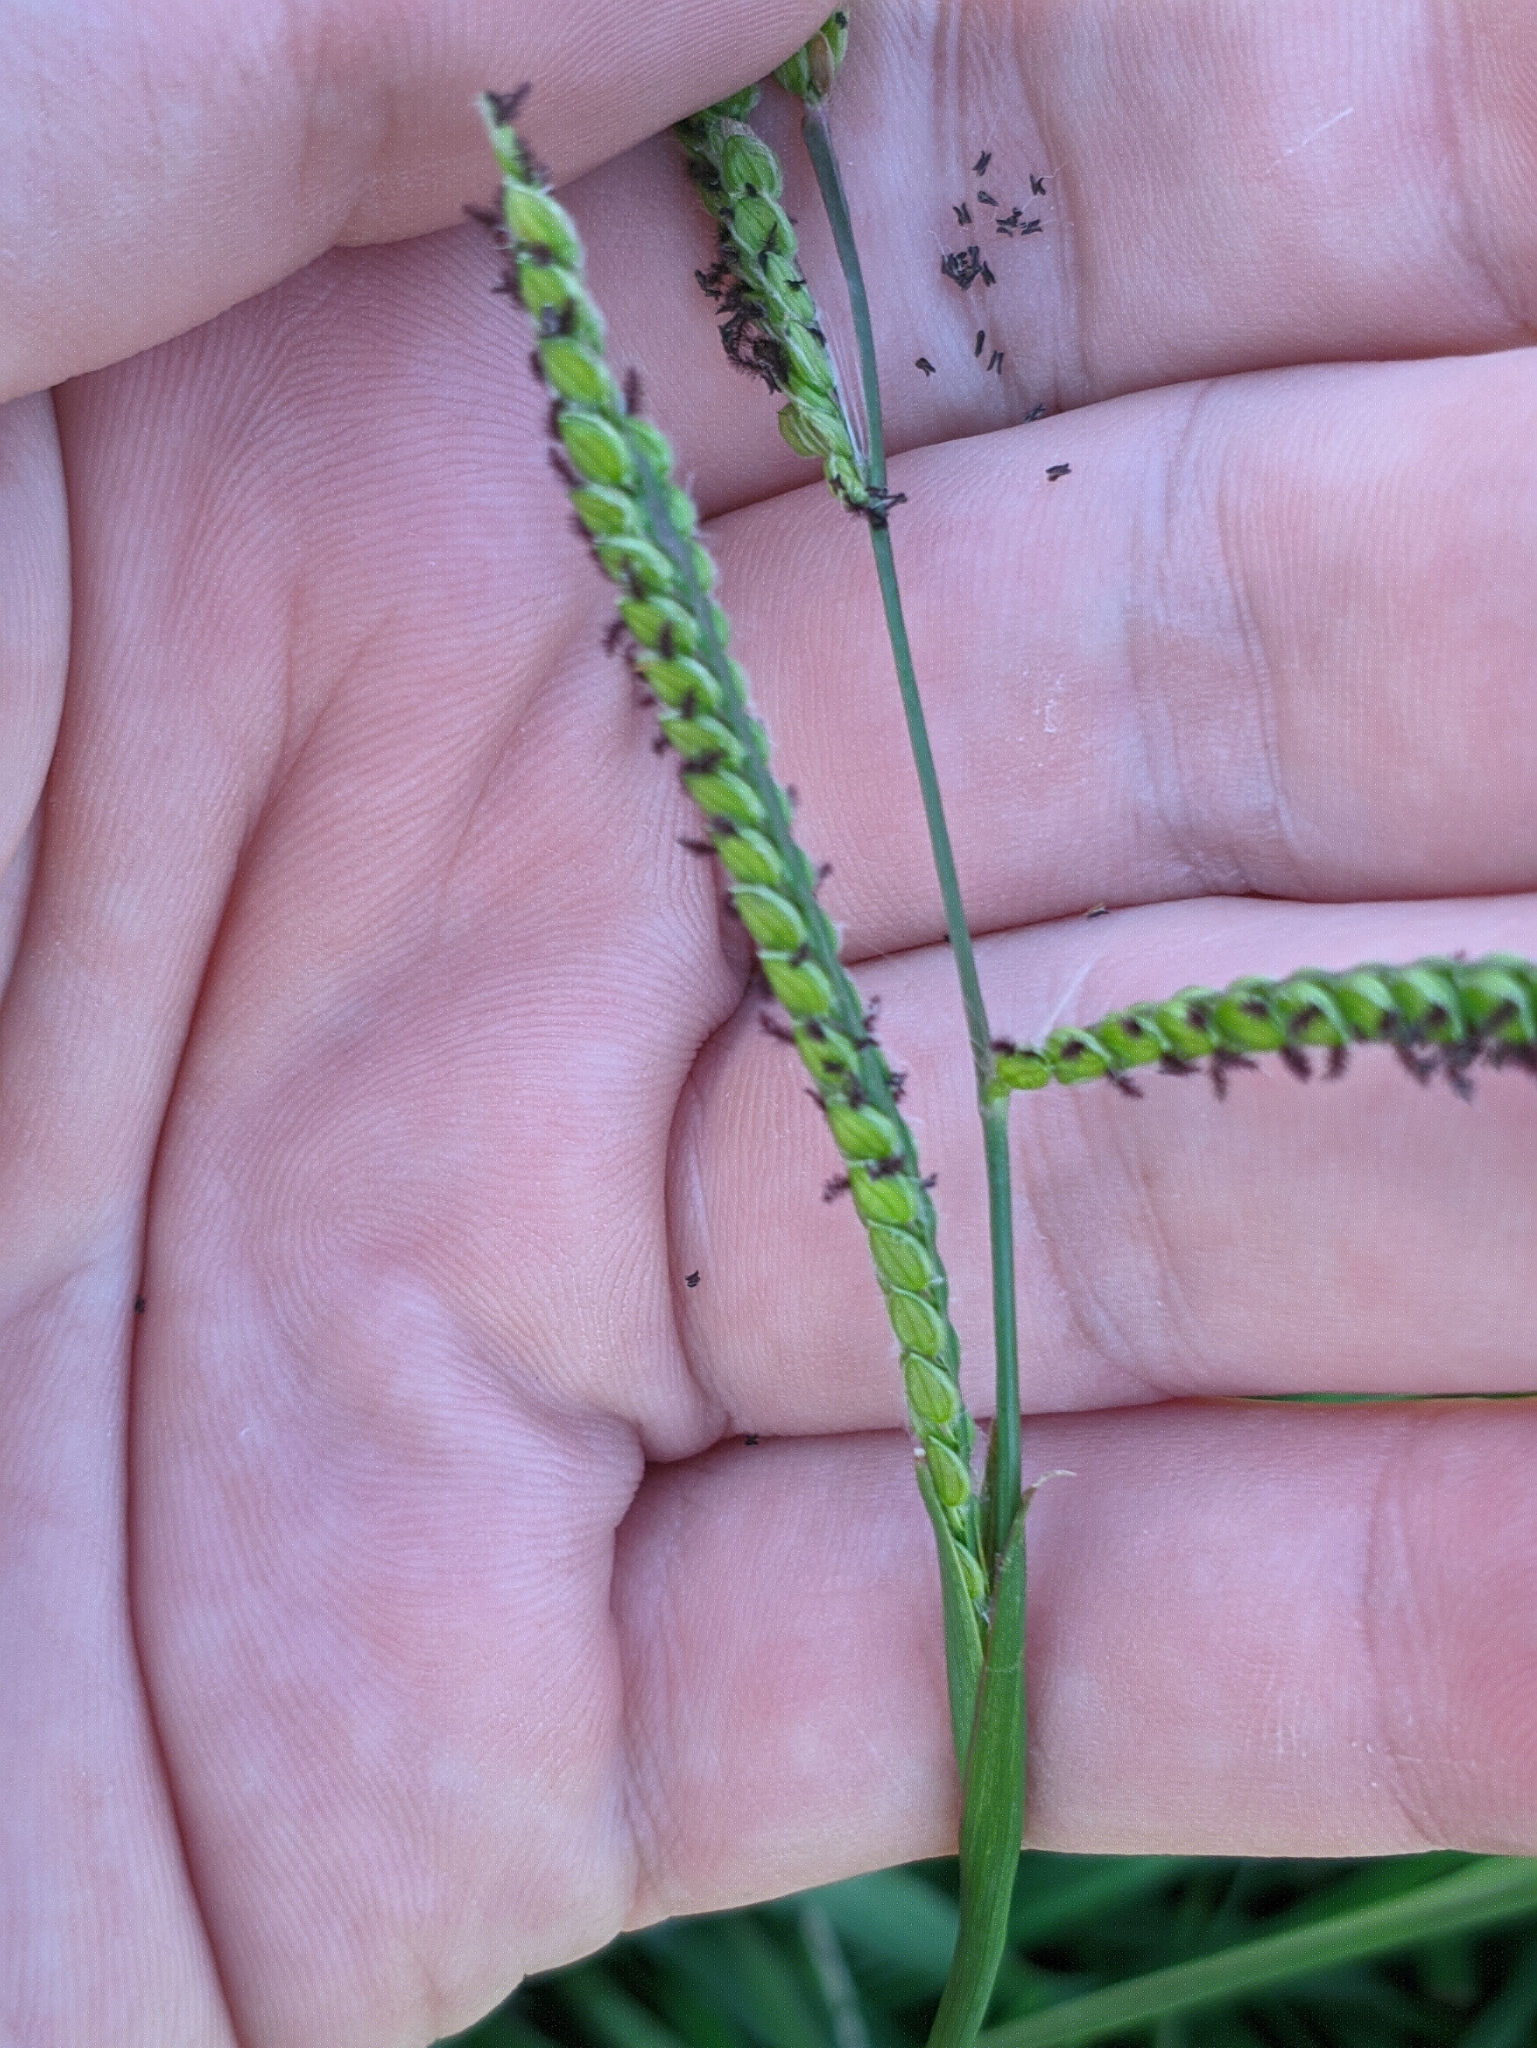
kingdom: Plantae
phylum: Tracheophyta
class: Liliopsida
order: Poales
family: Poaceae
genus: Paspalum
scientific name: Paspalum dilatatum
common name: Dallisgrass
